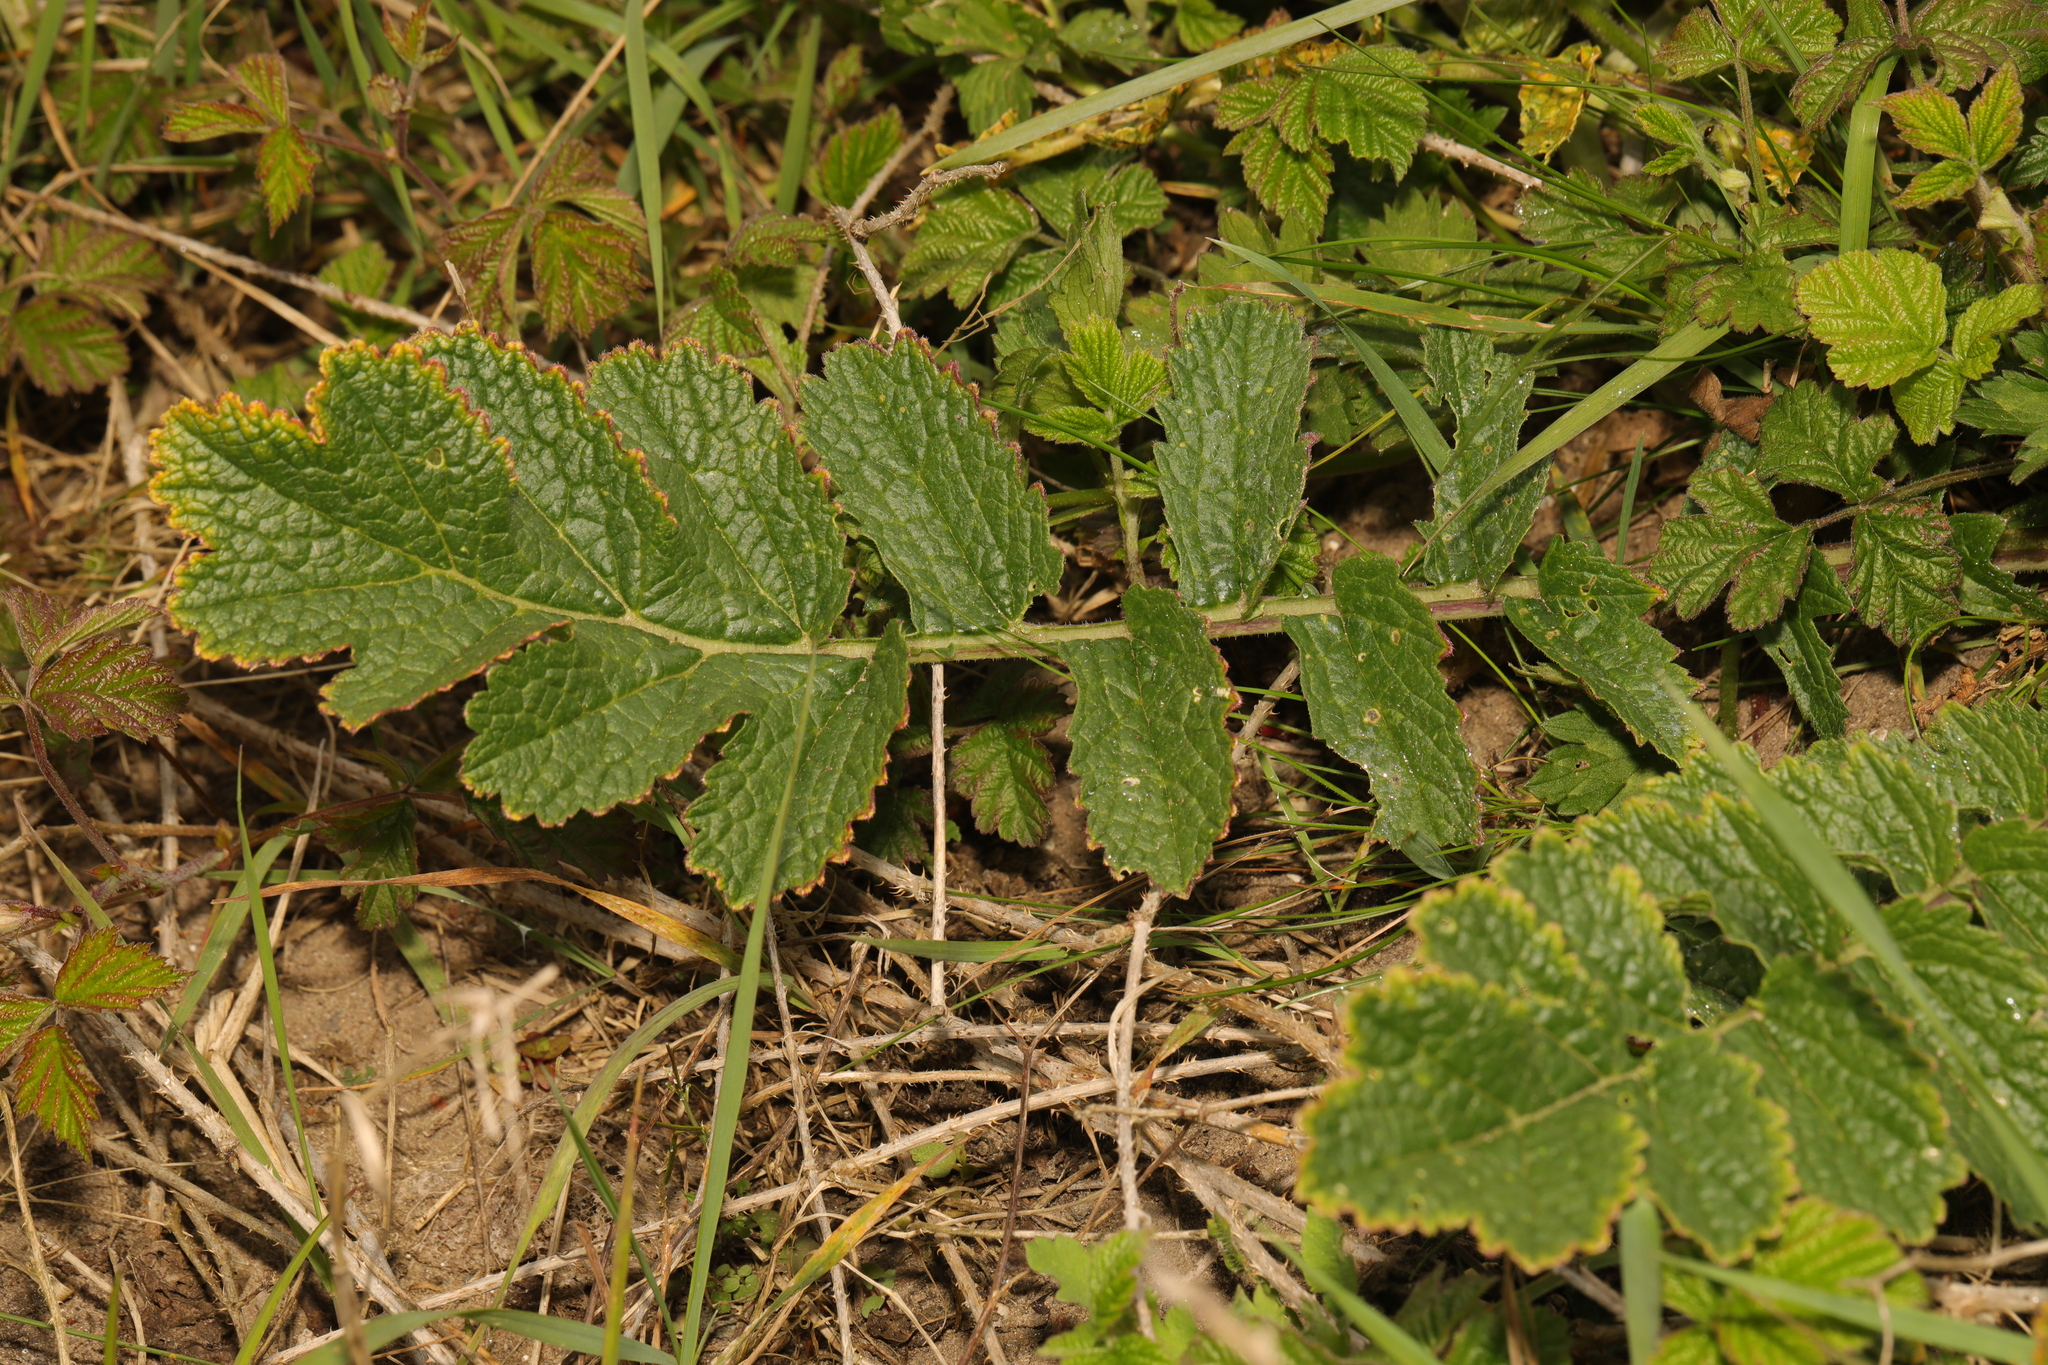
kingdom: Plantae
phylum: Tracheophyta
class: Magnoliopsida
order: Brassicales
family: Brassicaceae
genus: Raphanus
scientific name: Raphanus raphanistrum
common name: Wild radish
